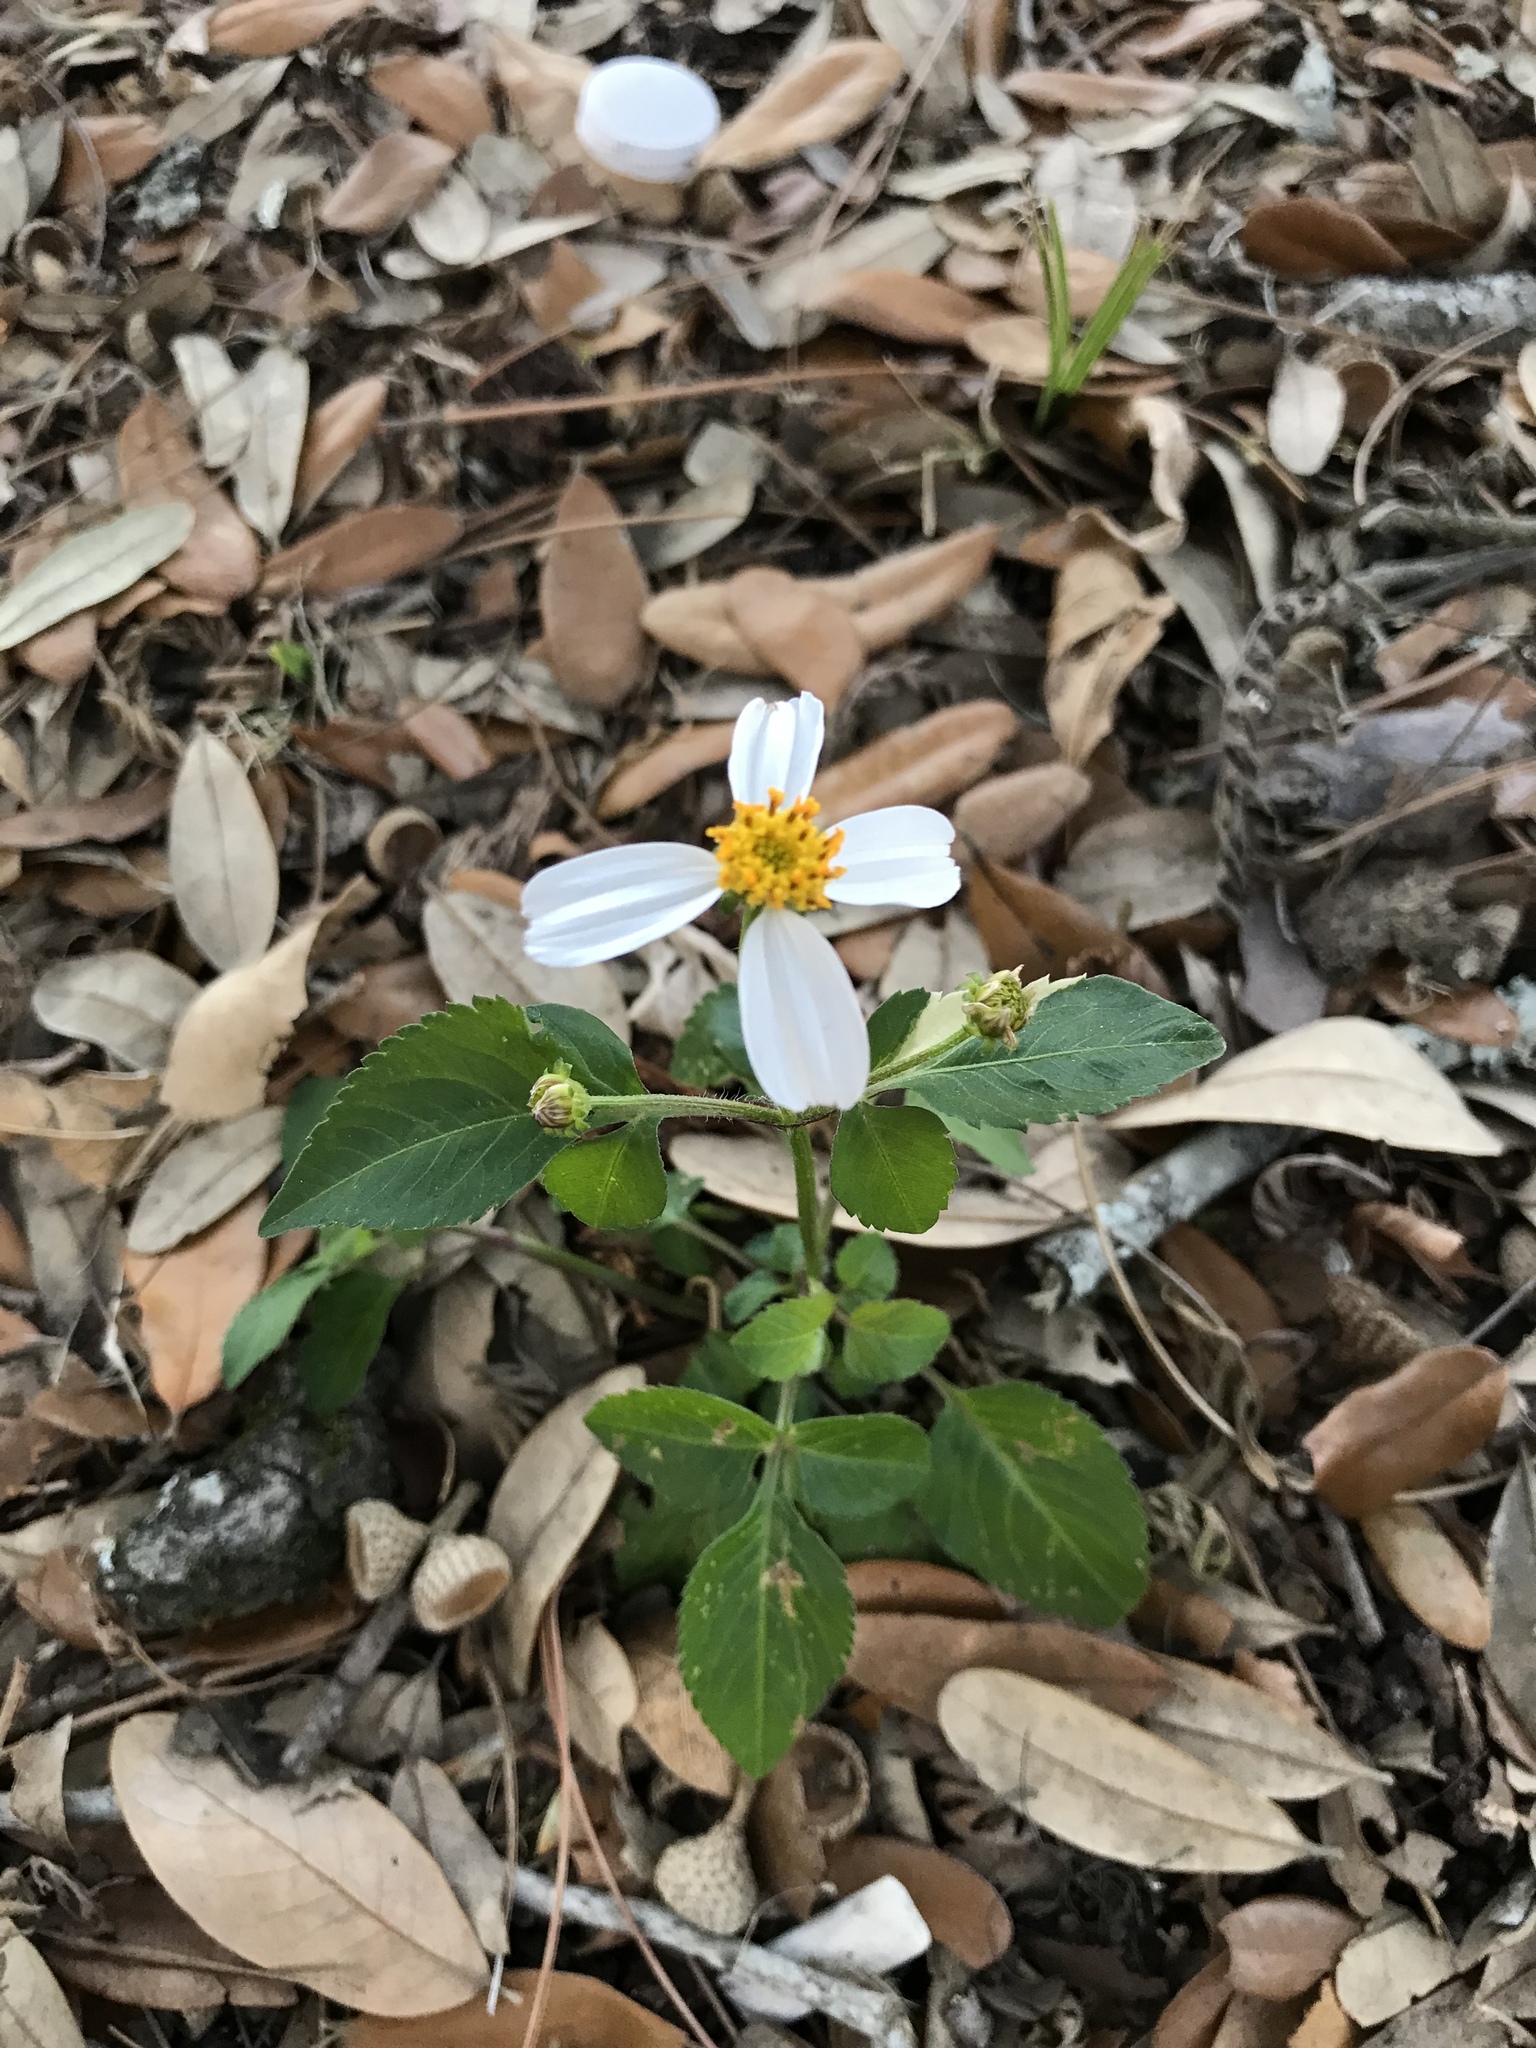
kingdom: Plantae
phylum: Tracheophyta
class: Magnoliopsida
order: Asterales
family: Asteraceae
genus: Bidens
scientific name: Bidens alba
